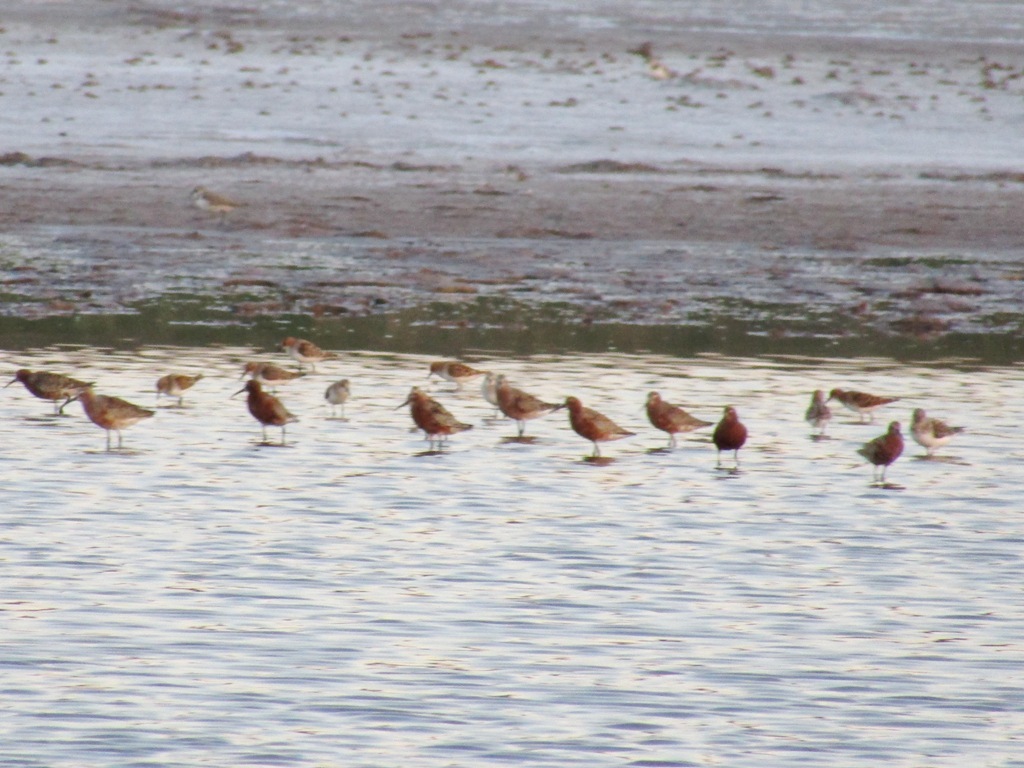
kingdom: Animalia
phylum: Chordata
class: Aves
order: Charadriiformes
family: Scolopacidae
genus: Calidris
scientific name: Calidris ferruginea
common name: Curlew sandpiper
